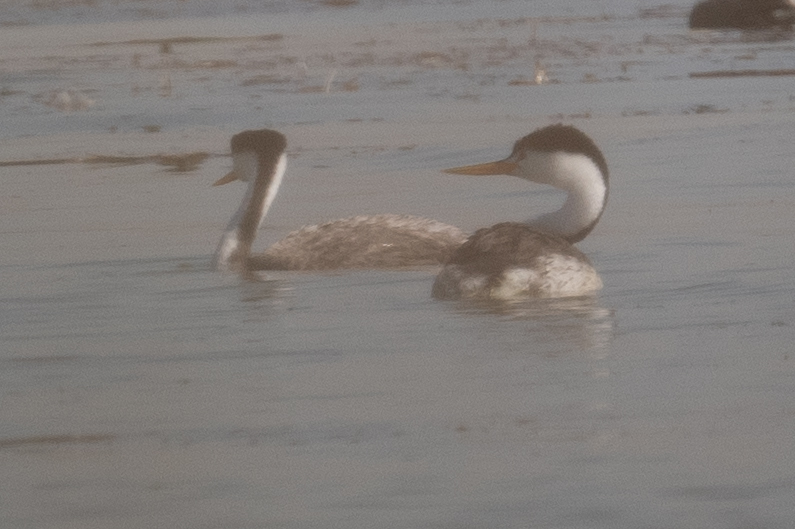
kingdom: Animalia
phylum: Chordata
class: Aves
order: Podicipediformes
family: Podicipedidae
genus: Aechmophorus
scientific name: Aechmophorus clarkii
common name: Clark's grebe
